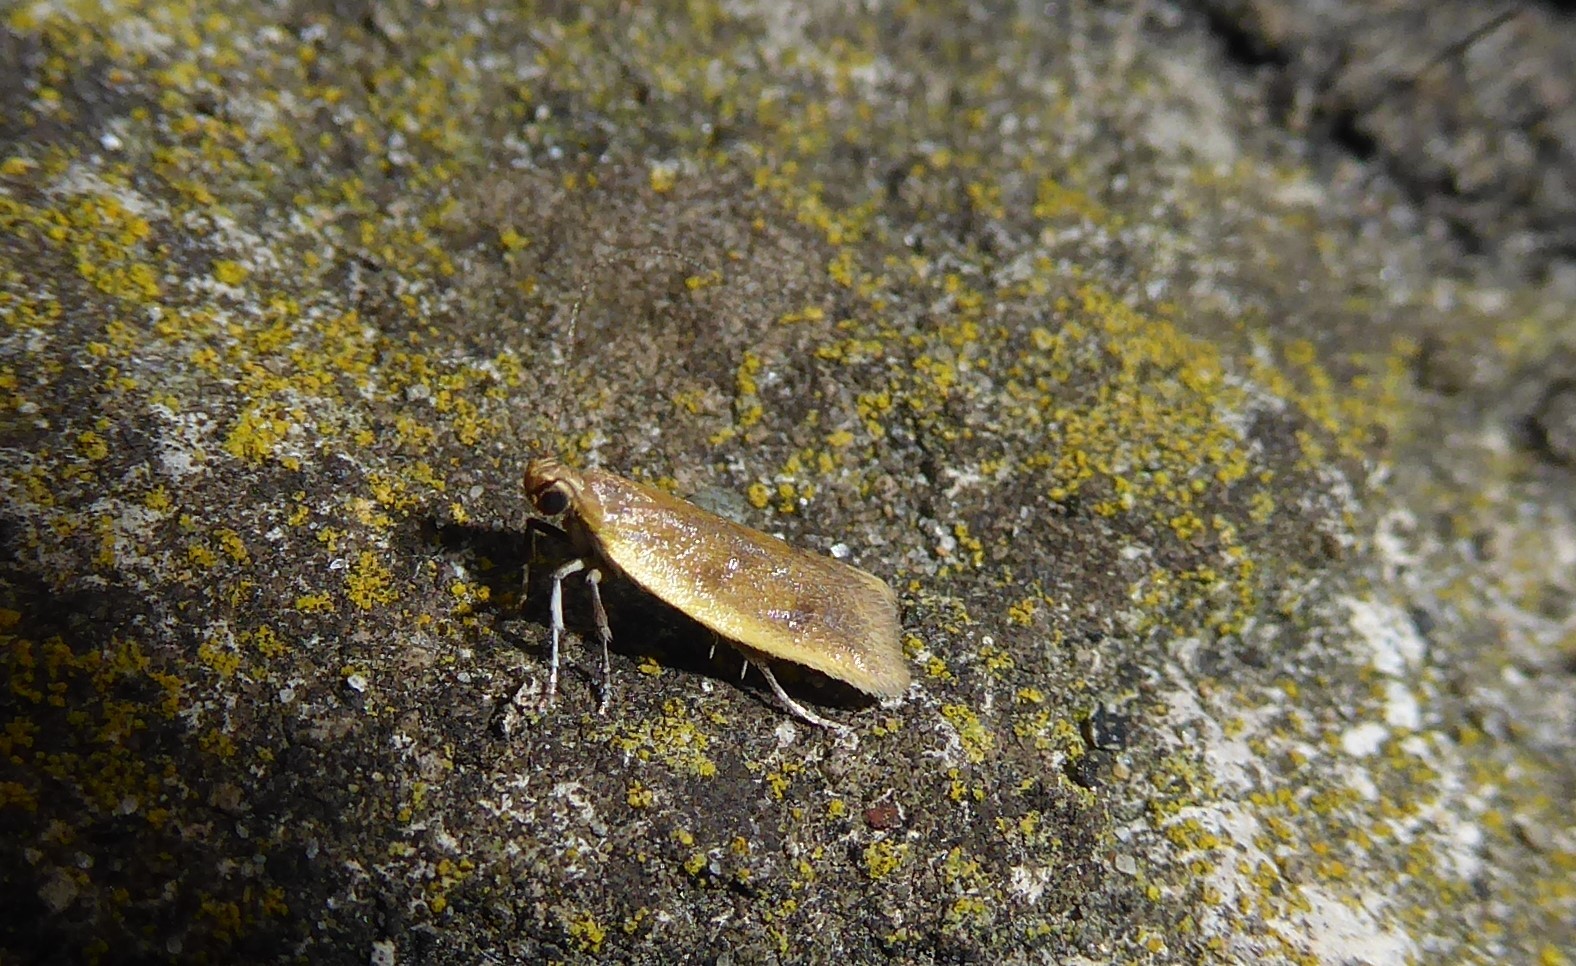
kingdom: Animalia
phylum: Arthropoda
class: Insecta
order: Lepidoptera
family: Oecophoridae
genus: Gymnobathra
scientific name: Gymnobathra parca
